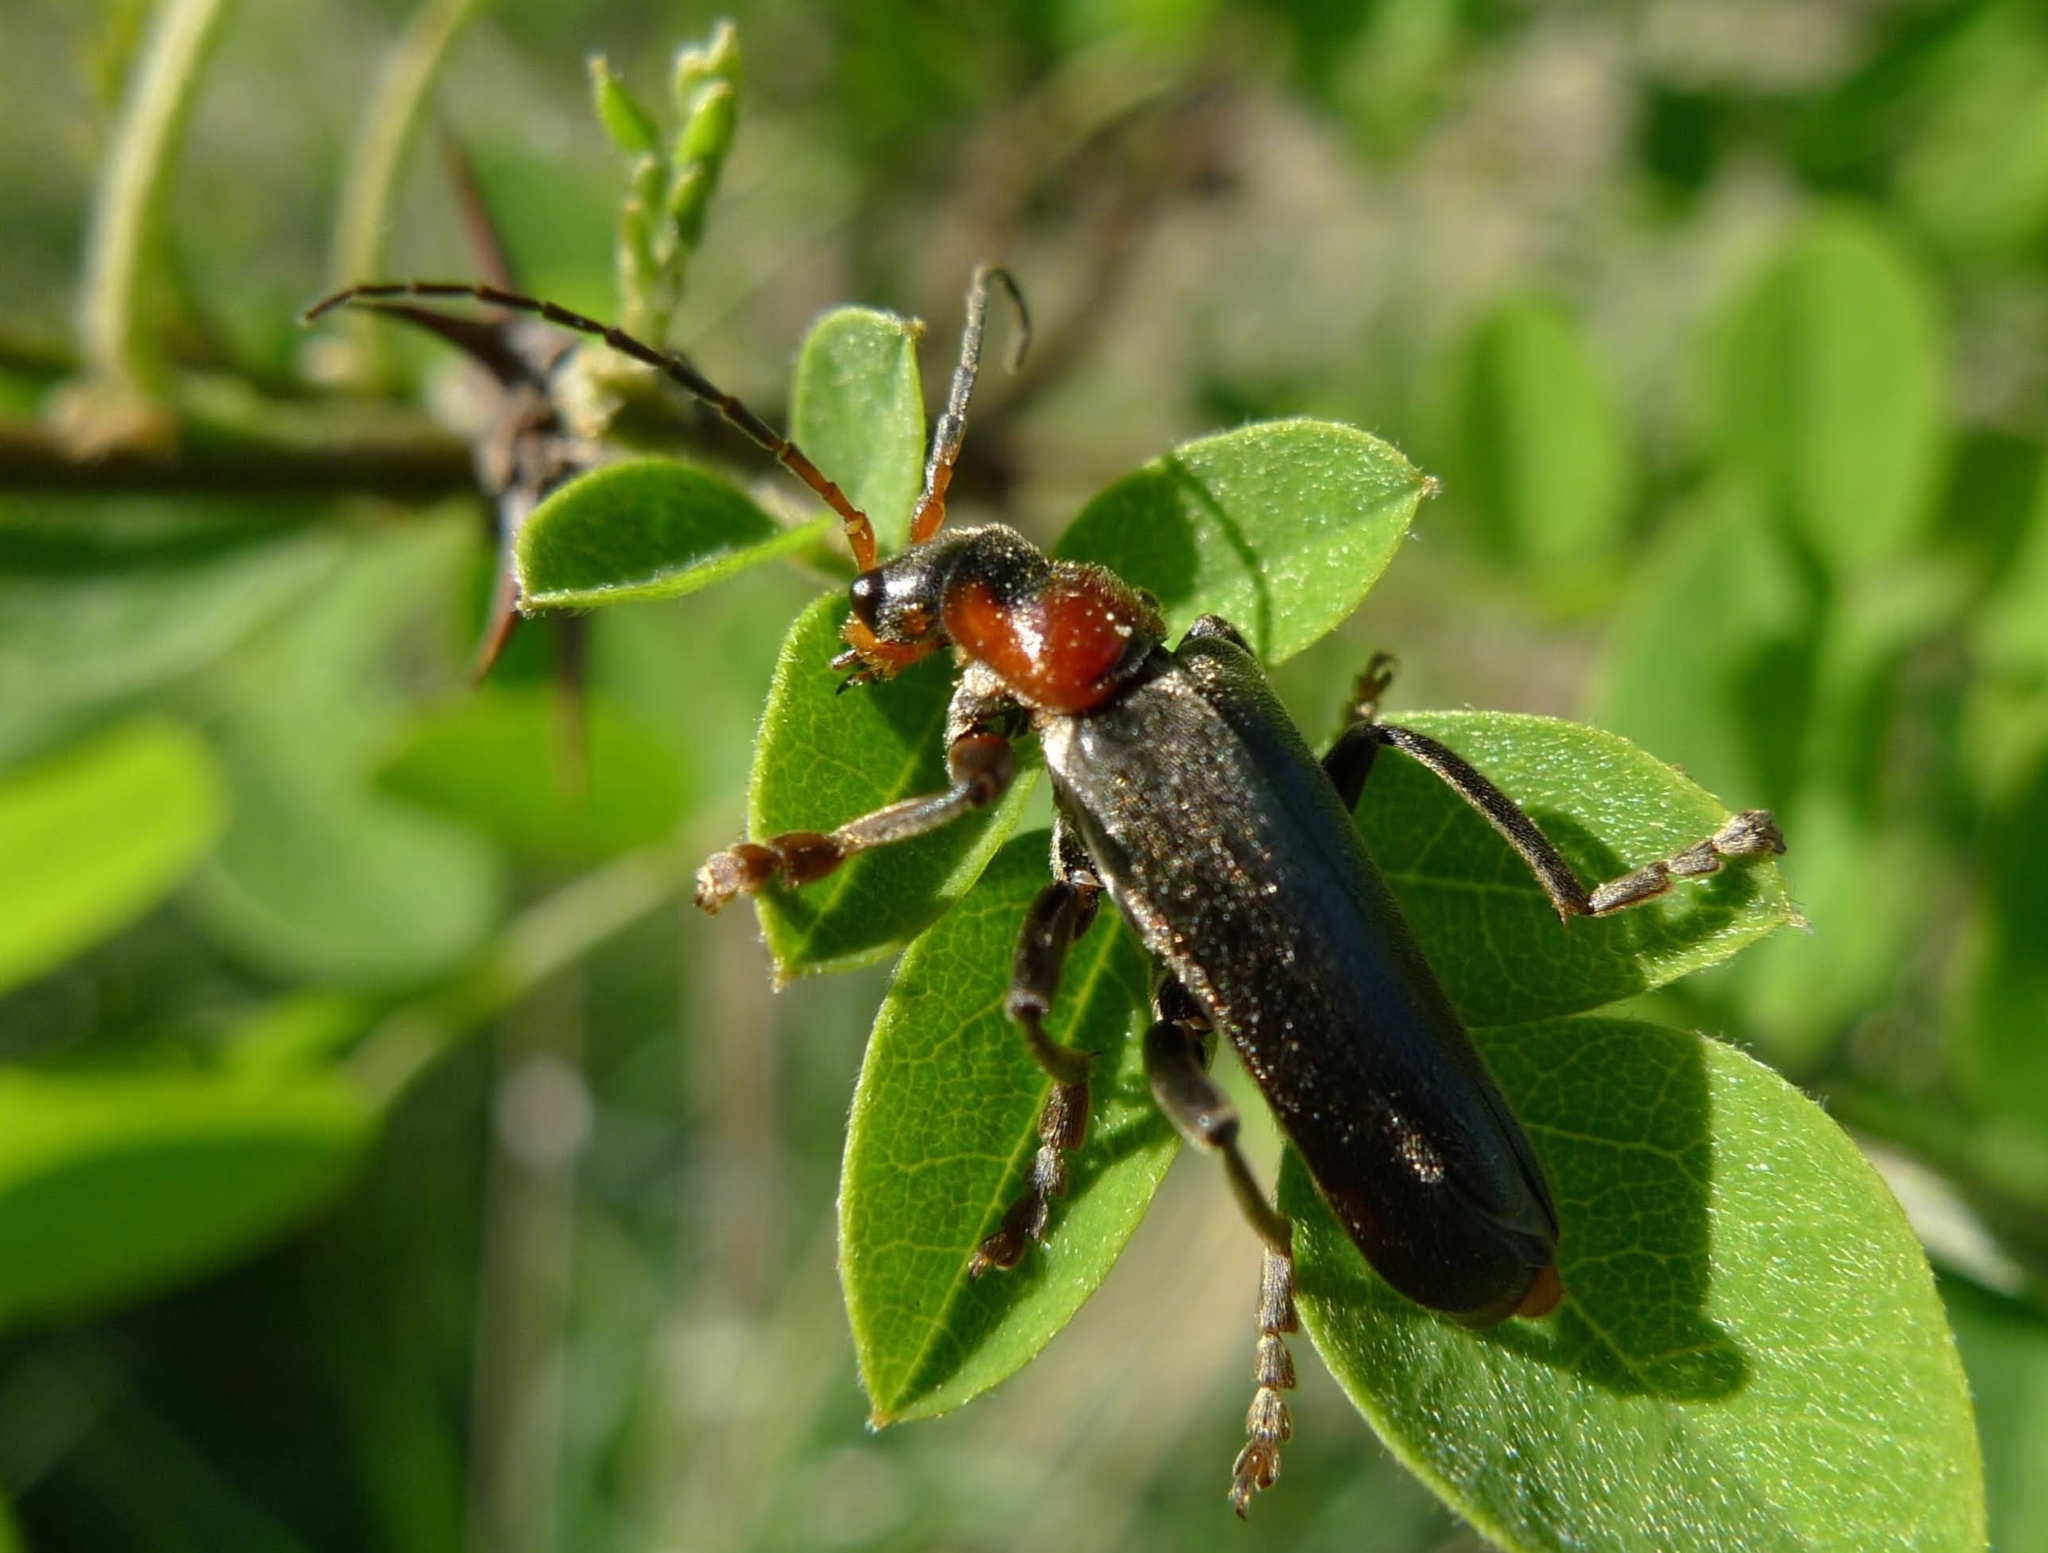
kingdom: Animalia
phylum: Arthropoda
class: Insecta
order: Coleoptera
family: Cantharidae
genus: Cantharis
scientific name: Cantharis fusca
